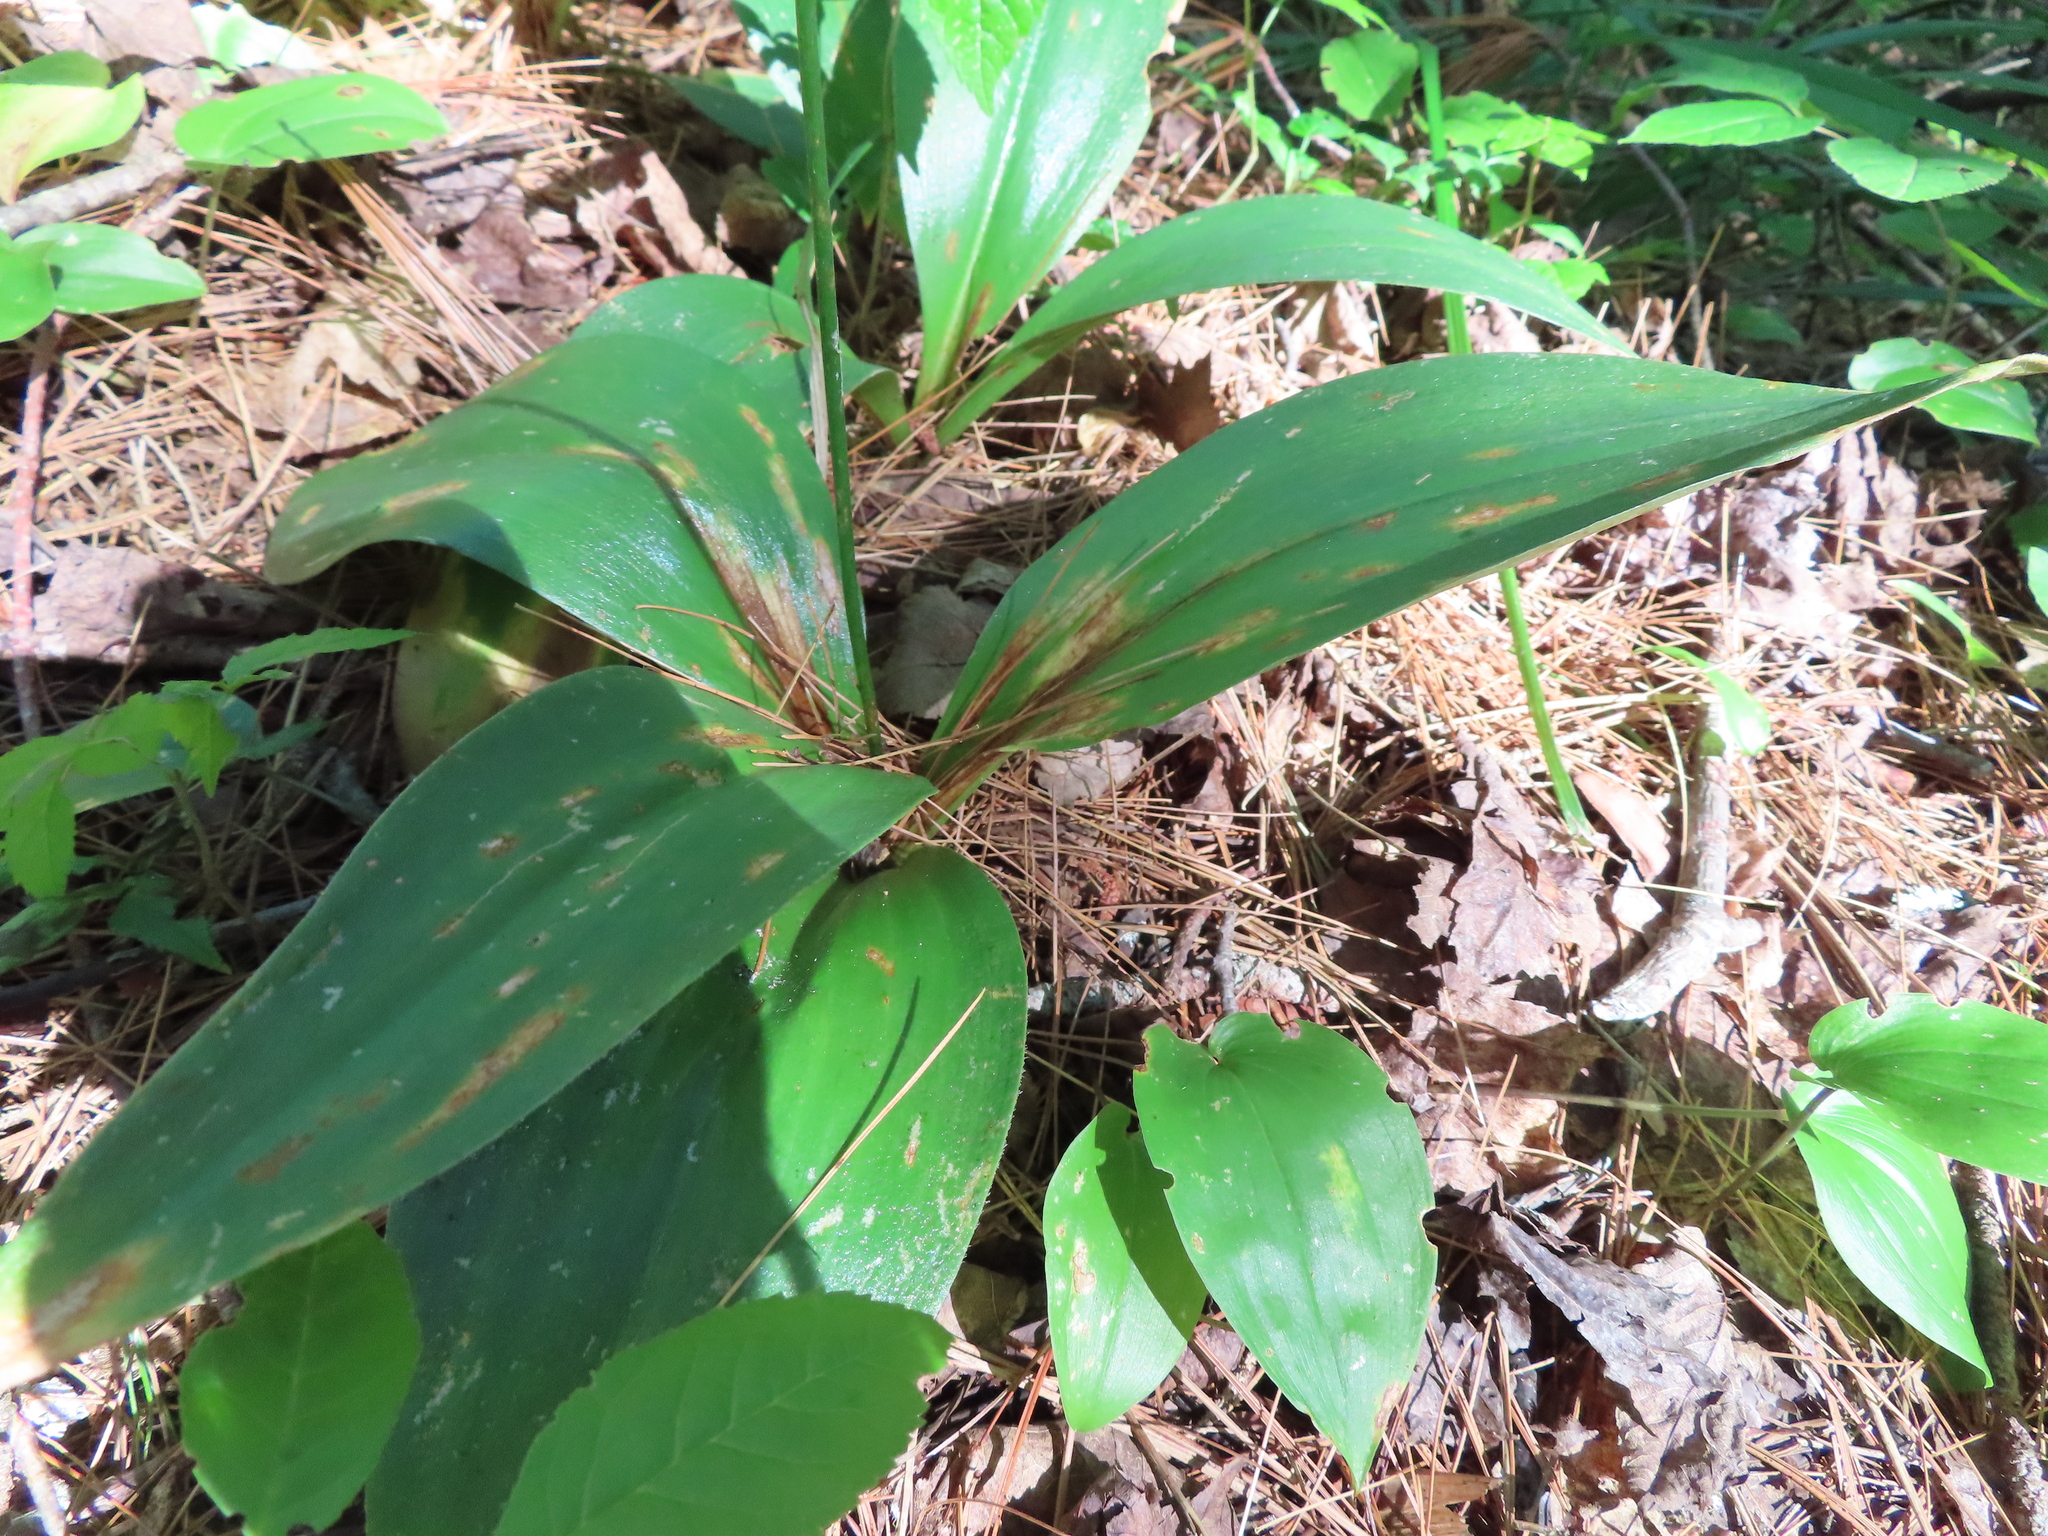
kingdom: Plantae
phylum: Tracheophyta
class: Liliopsida
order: Liliales
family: Liliaceae
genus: Clintonia
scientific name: Clintonia borealis
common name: Yellow clintonia
